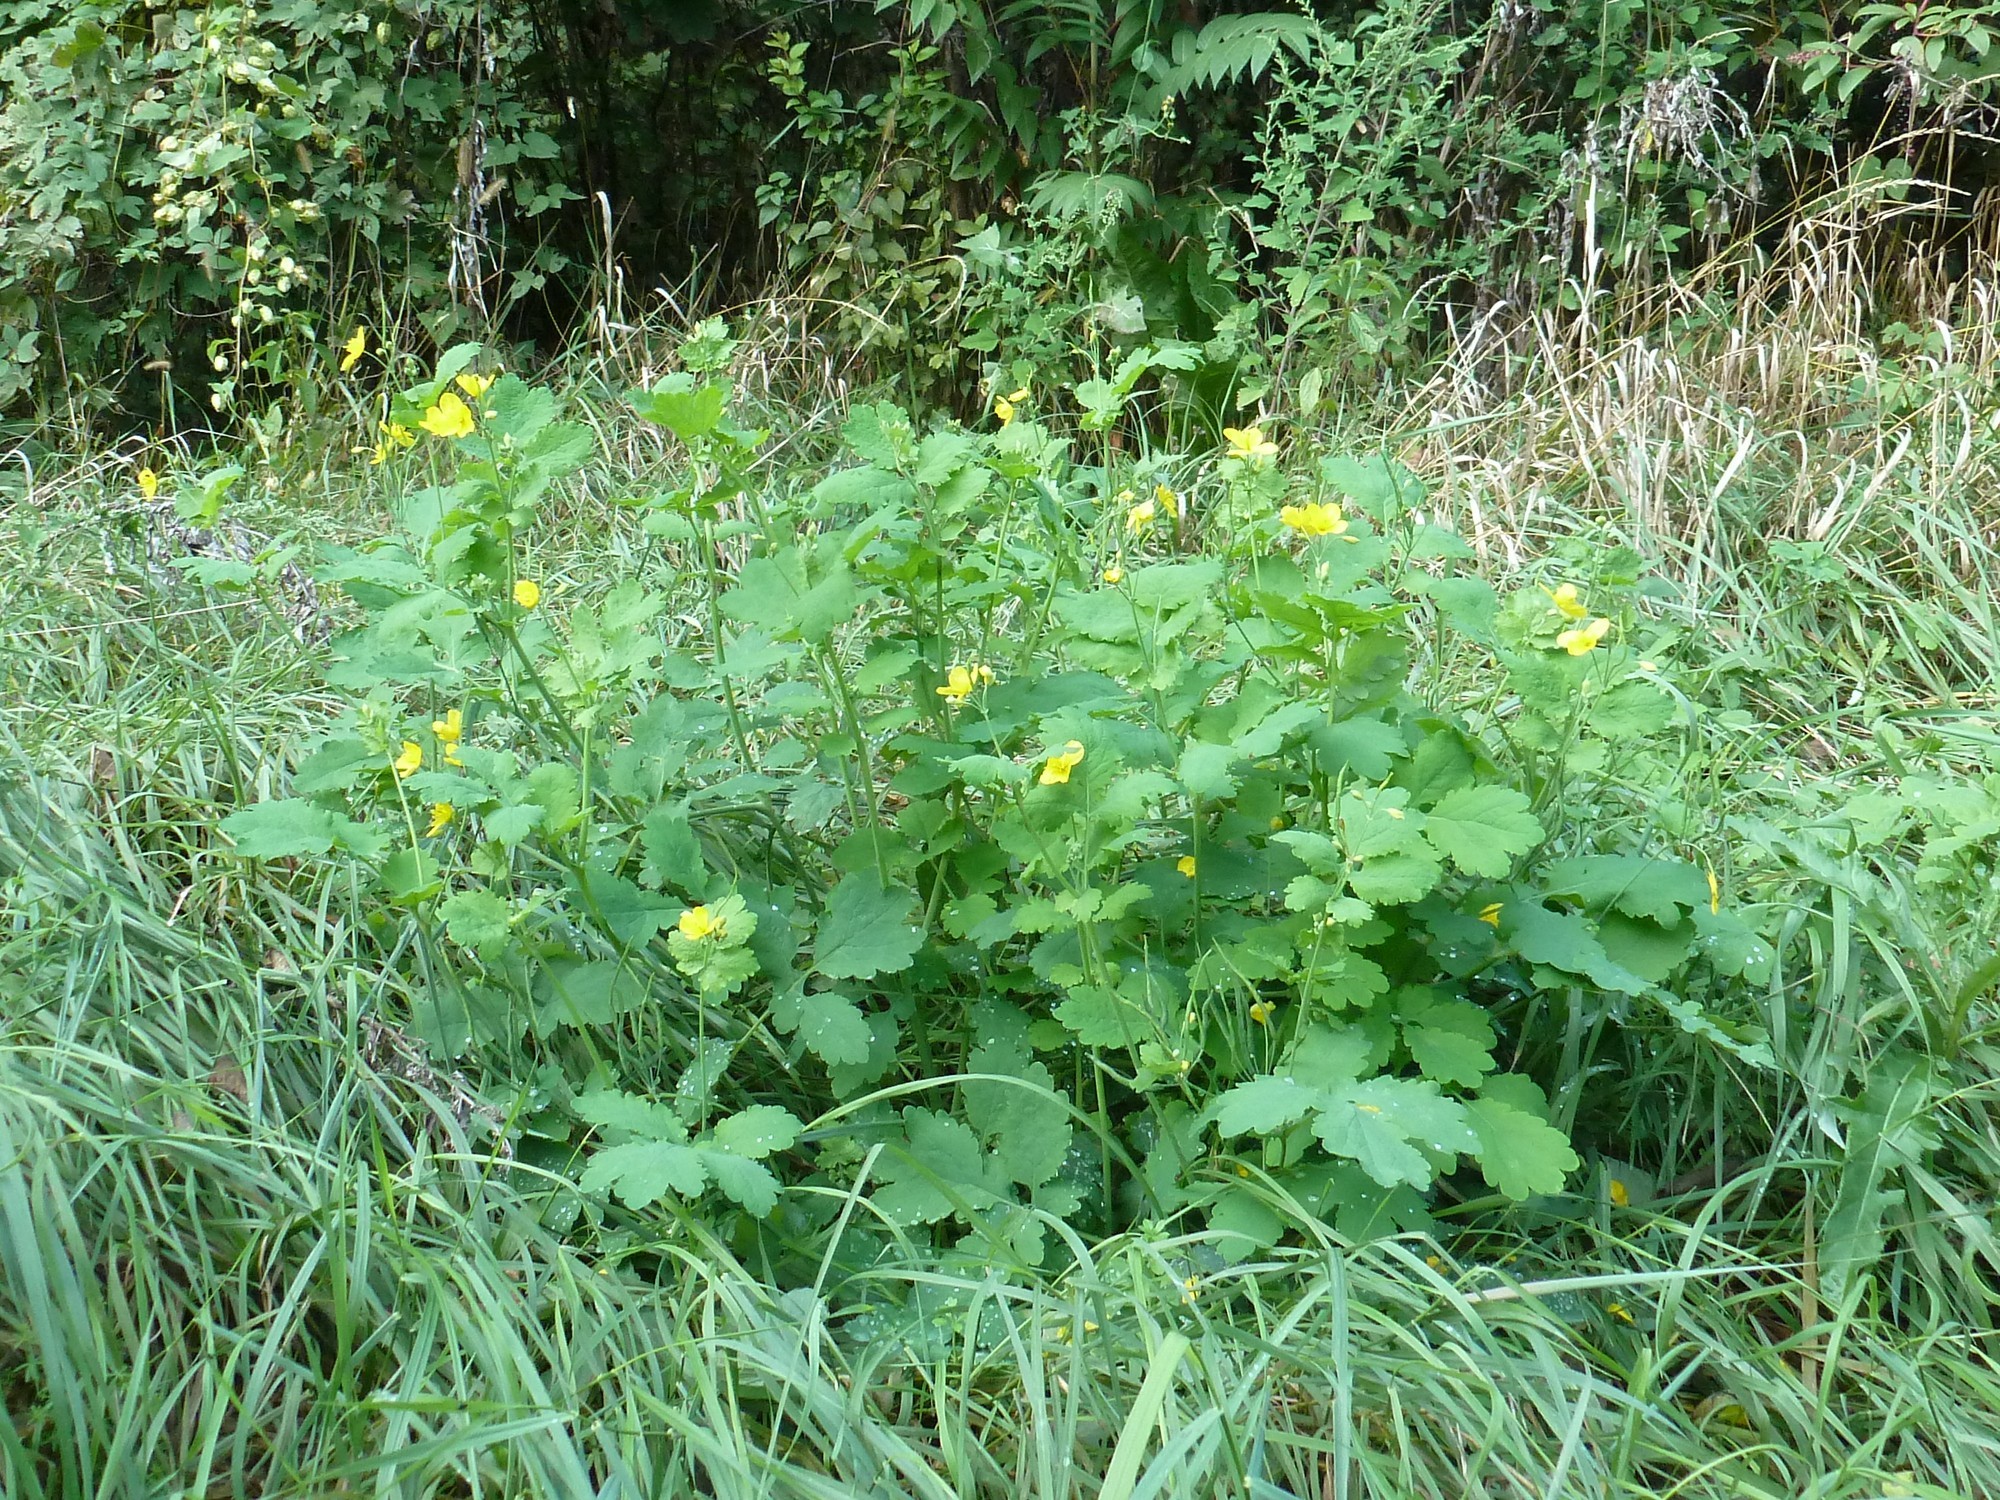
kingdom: Plantae
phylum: Tracheophyta
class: Magnoliopsida
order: Ranunculales
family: Papaveraceae
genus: Chelidonium
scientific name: Chelidonium majus
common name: Greater celandine
